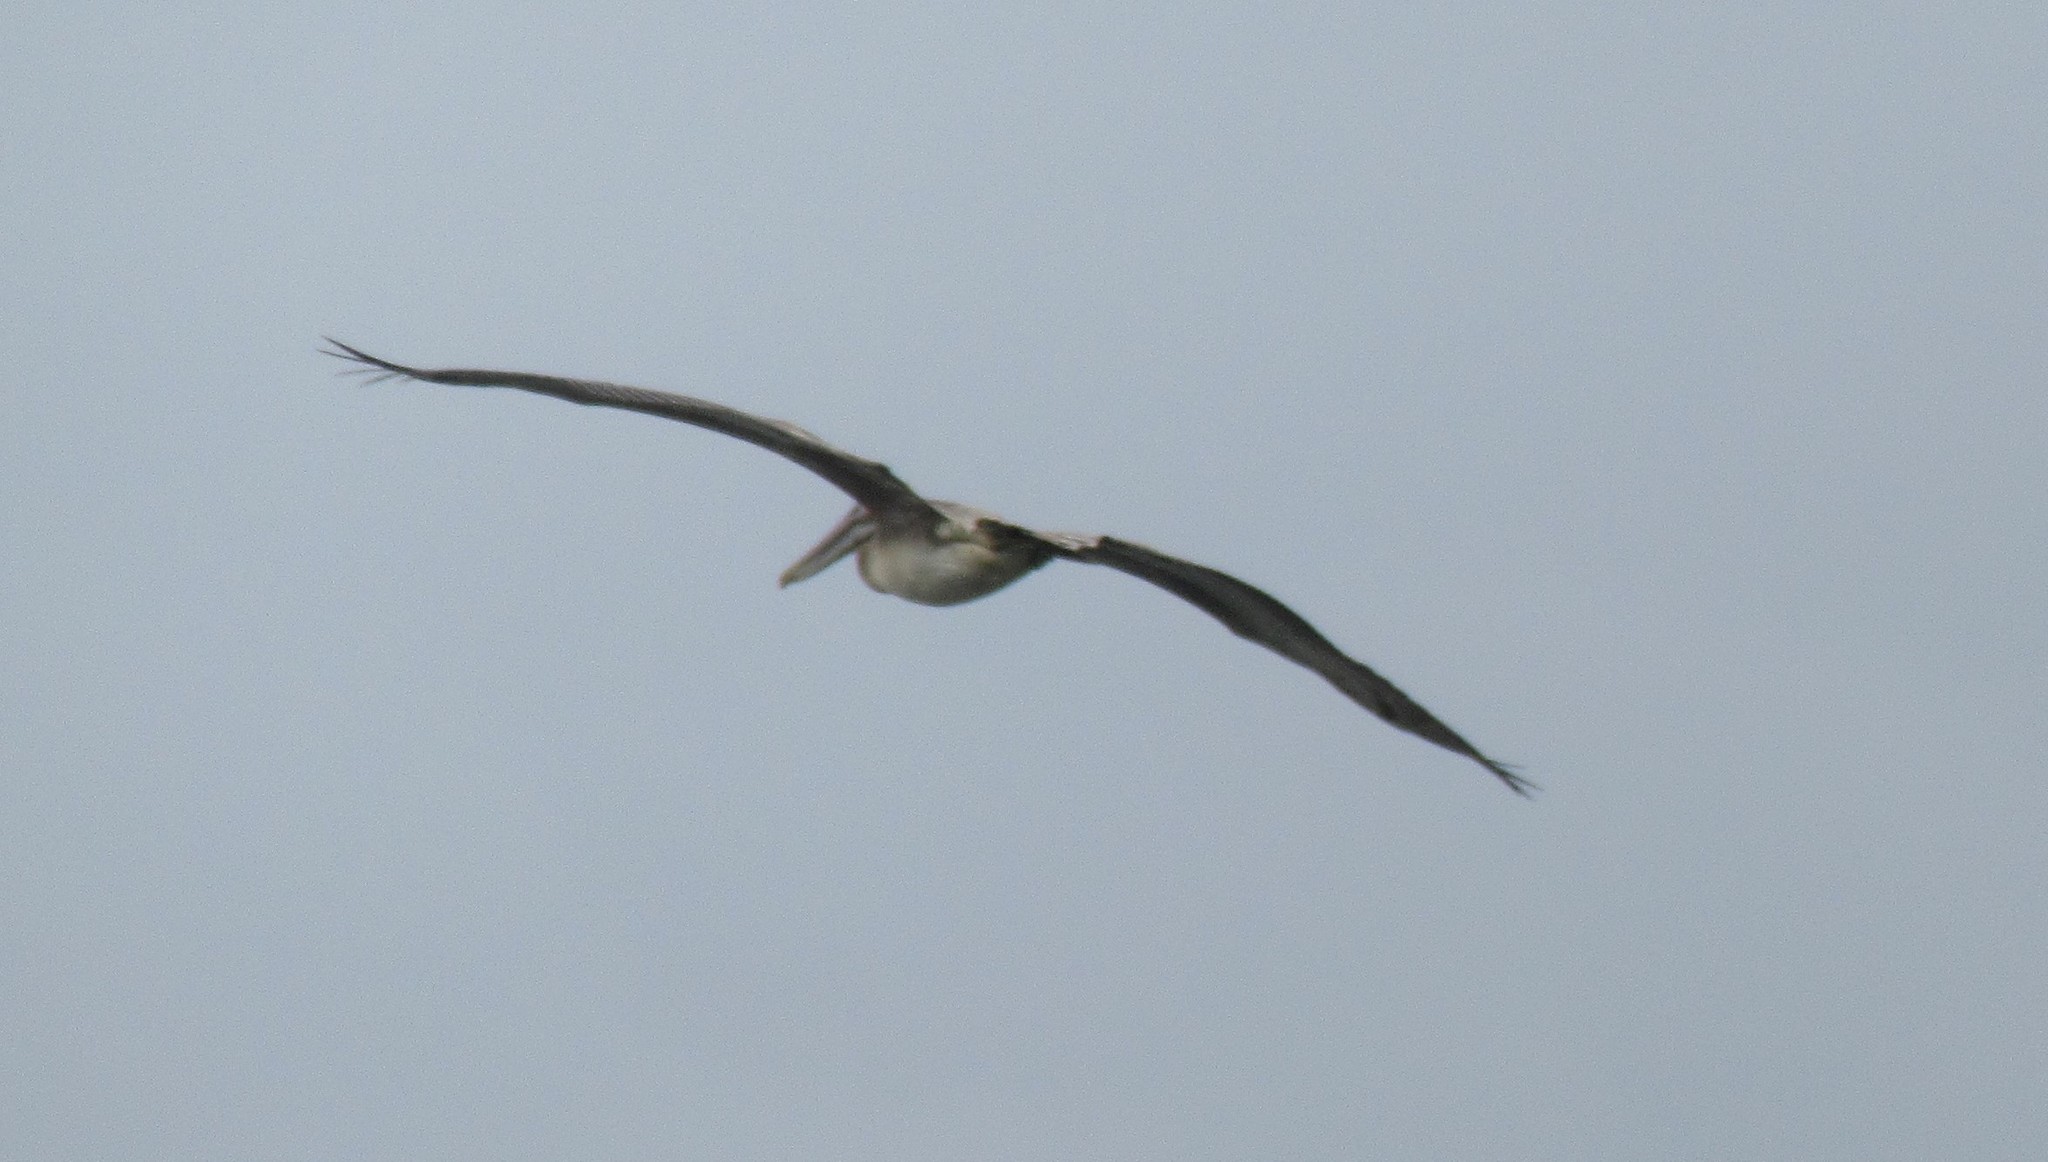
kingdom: Animalia
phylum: Chordata
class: Aves
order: Pelecaniformes
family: Pelecanidae
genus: Pelecanus
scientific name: Pelecanus occidentalis
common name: Brown pelican
